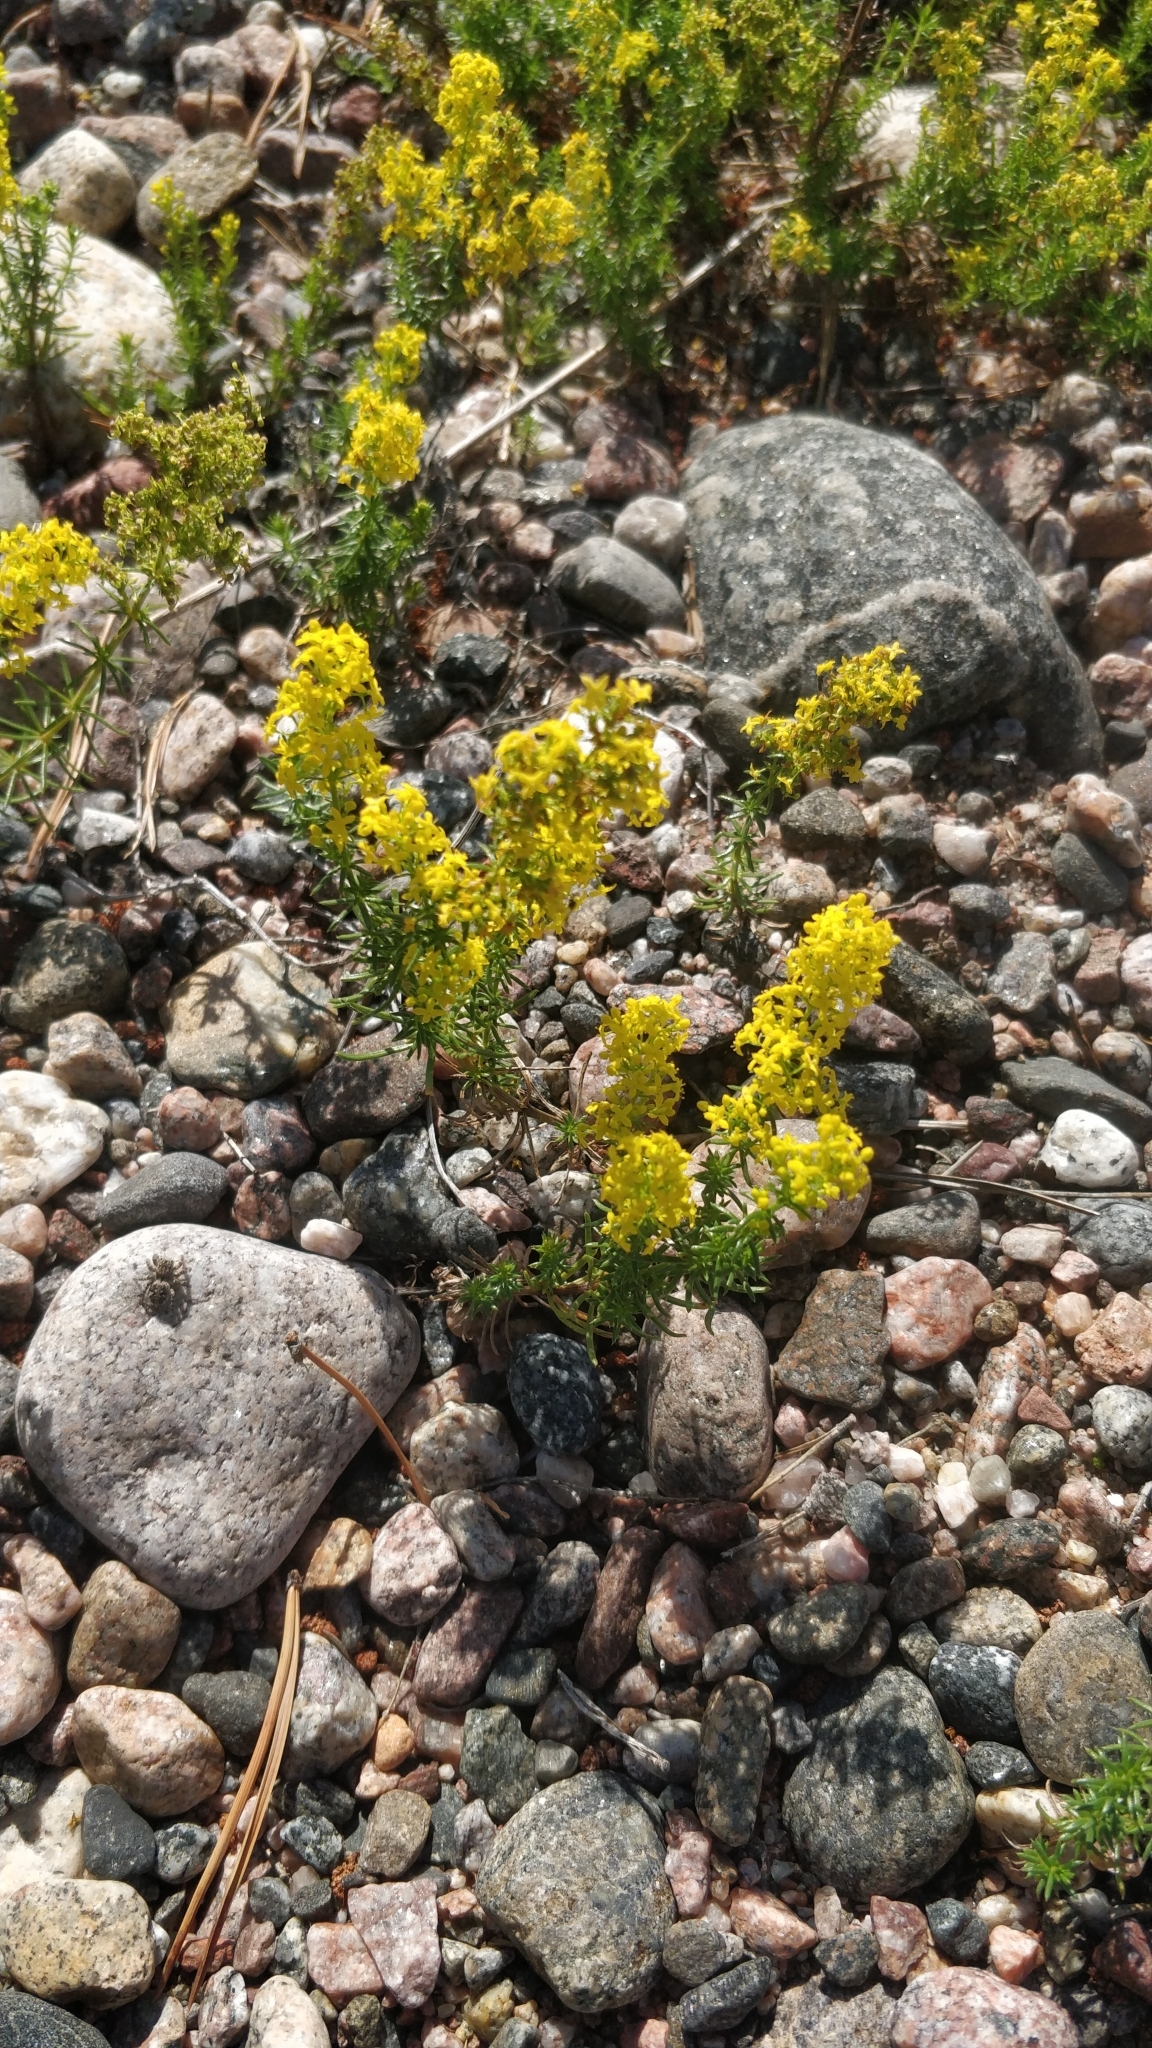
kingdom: Plantae
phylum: Tracheophyta
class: Magnoliopsida
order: Gentianales
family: Rubiaceae
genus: Galium
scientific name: Galium verum
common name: Lady's bedstraw
